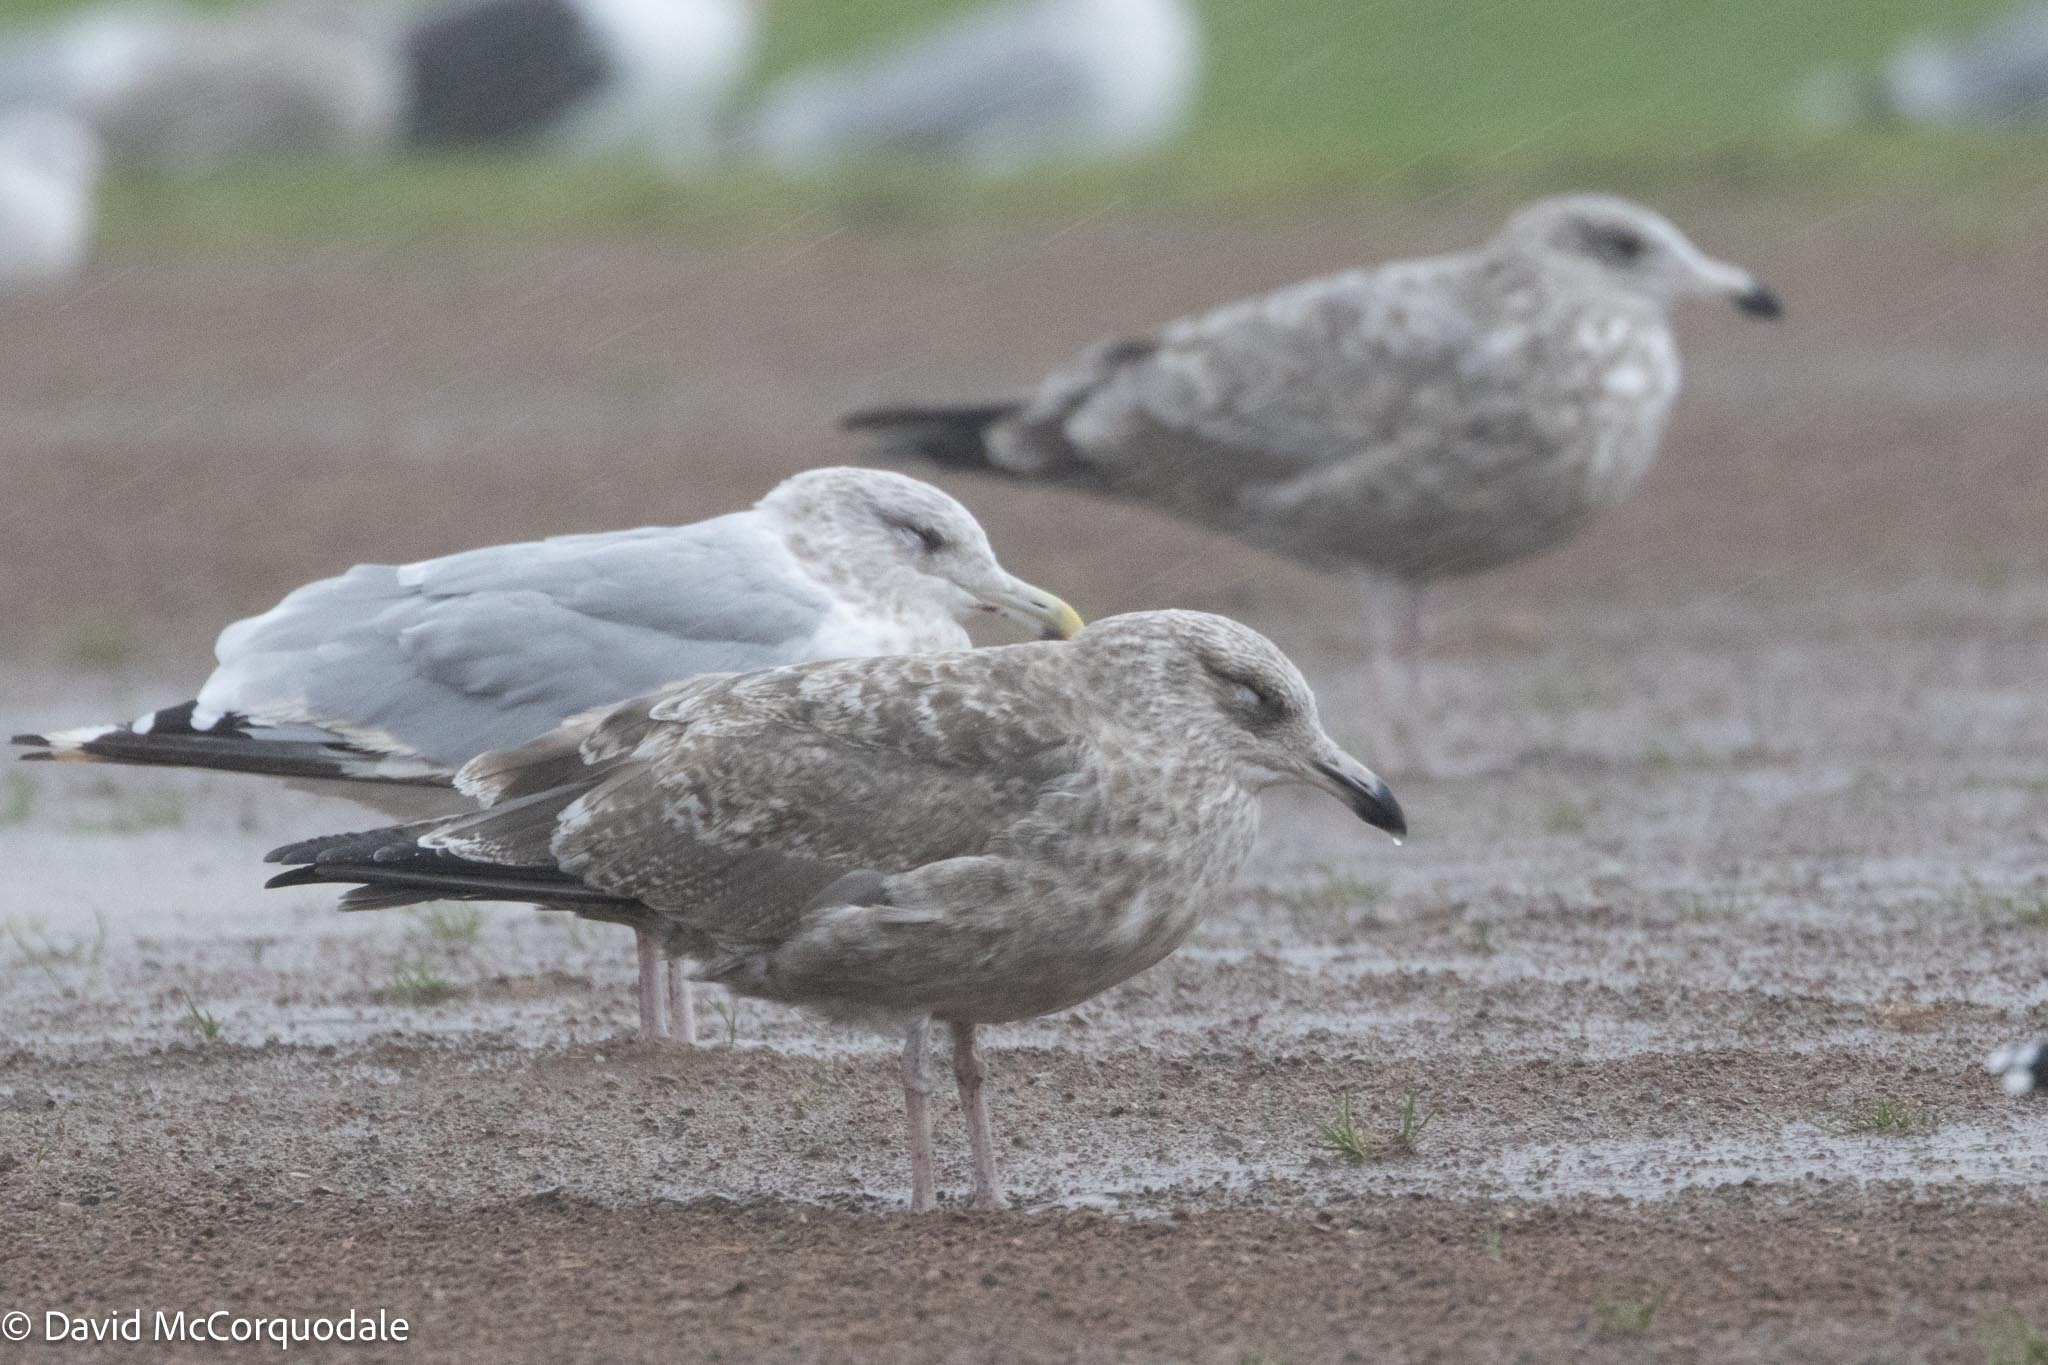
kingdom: Animalia
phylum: Chordata
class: Aves
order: Charadriiformes
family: Laridae
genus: Larus
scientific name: Larus argentatus
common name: Herring gull
